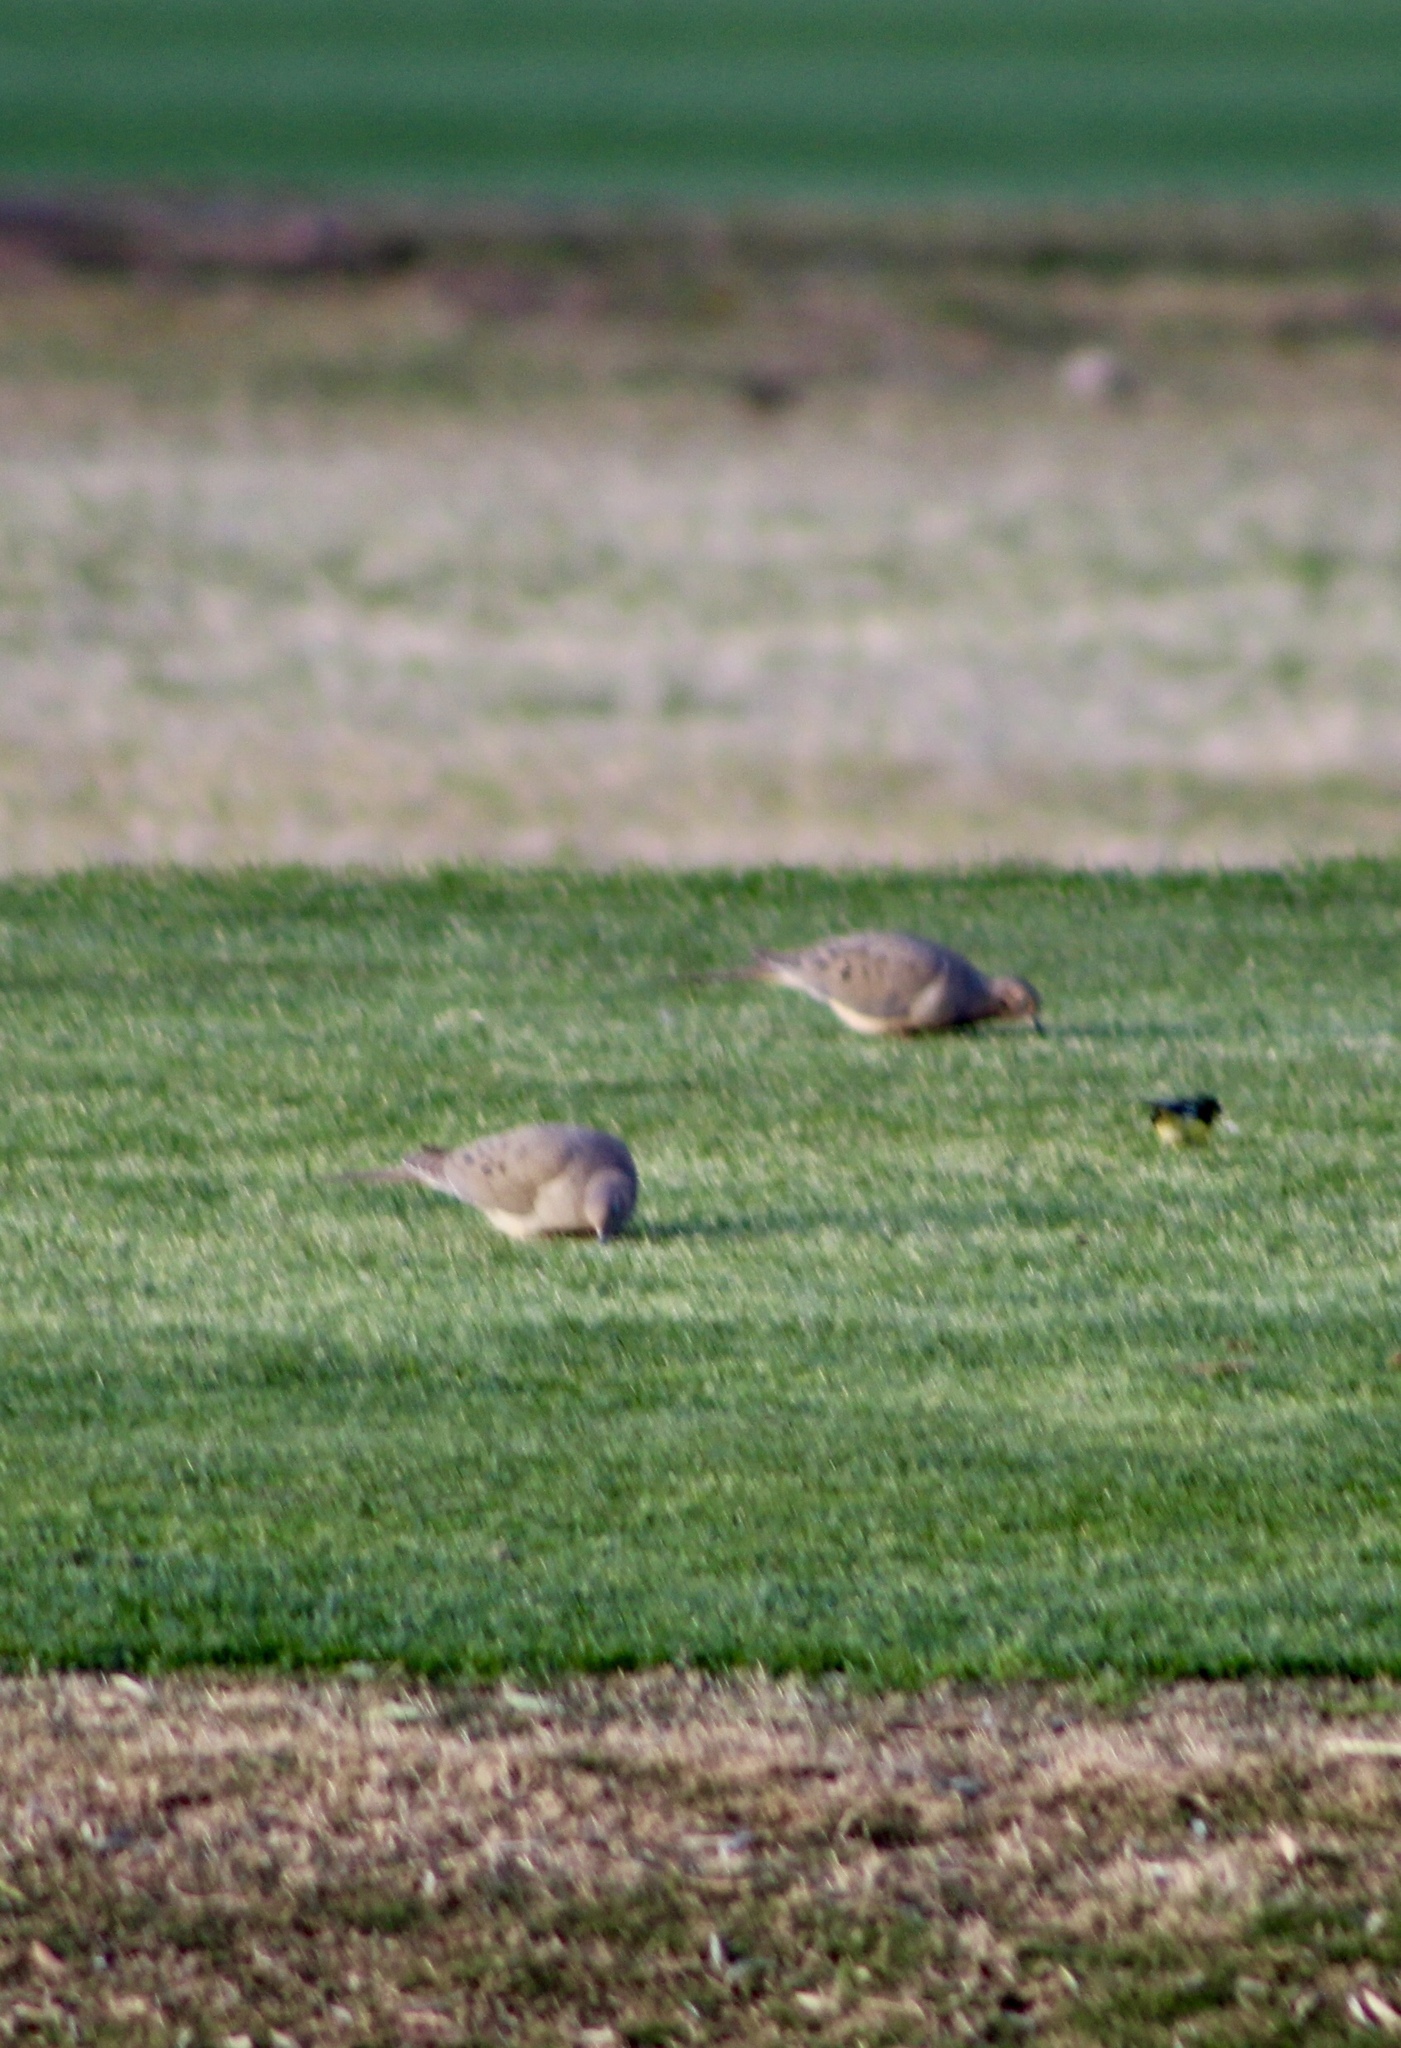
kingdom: Animalia
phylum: Chordata
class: Aves
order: Columbiformes
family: Columbidae
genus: Zenaida
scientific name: Zenaida macroura
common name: Mourning dove
